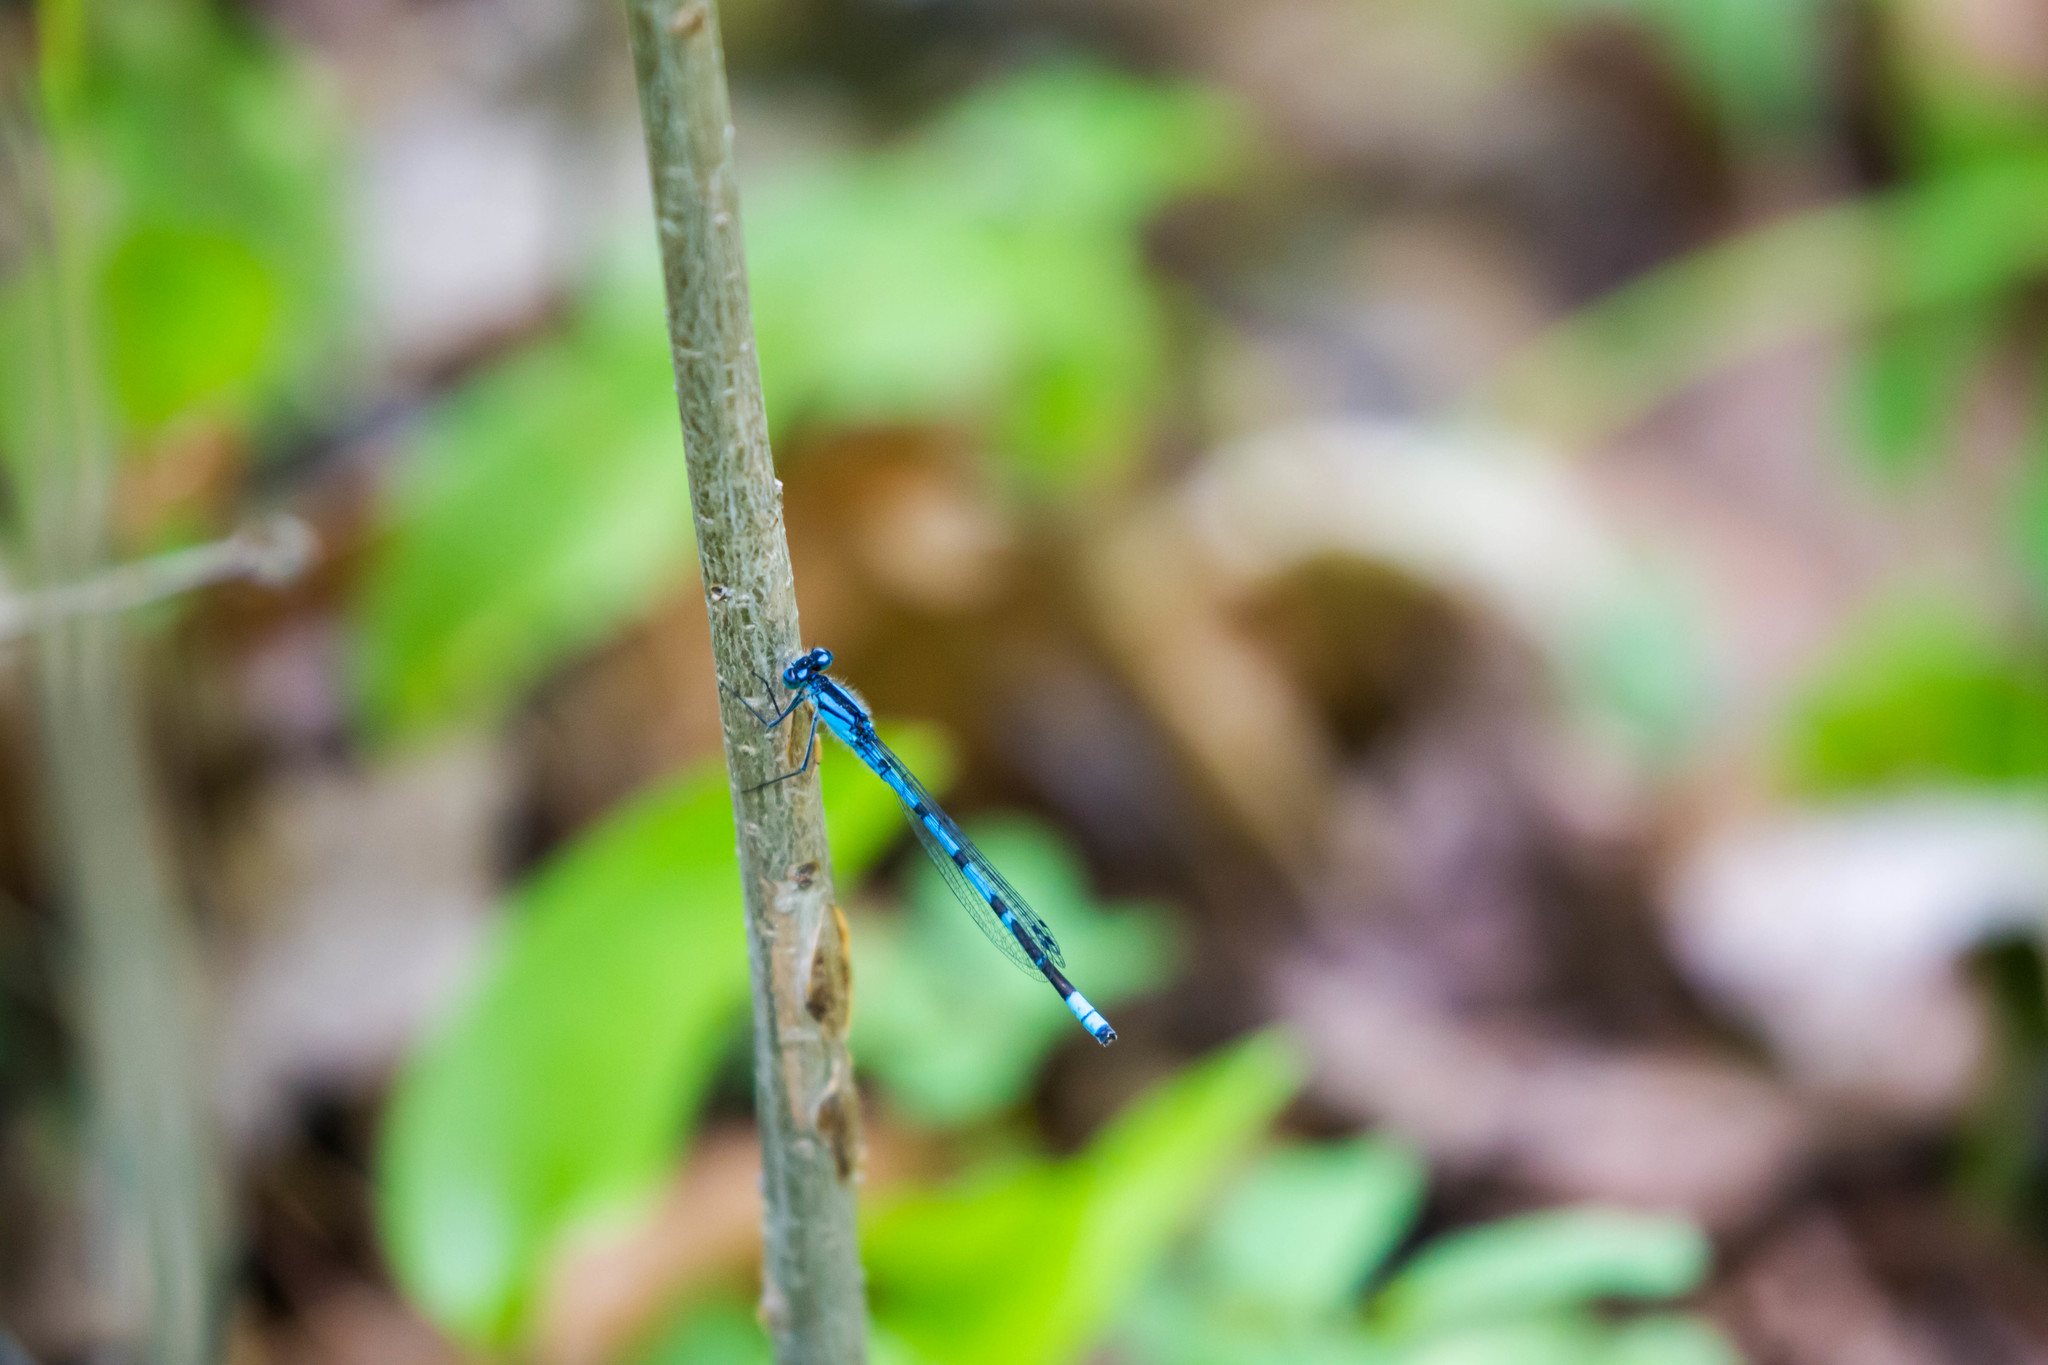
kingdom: Animalia
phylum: Arthropoda
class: Insecta
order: Odonata
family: Coenagrionidae
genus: Enallagma
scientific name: Enallagma
